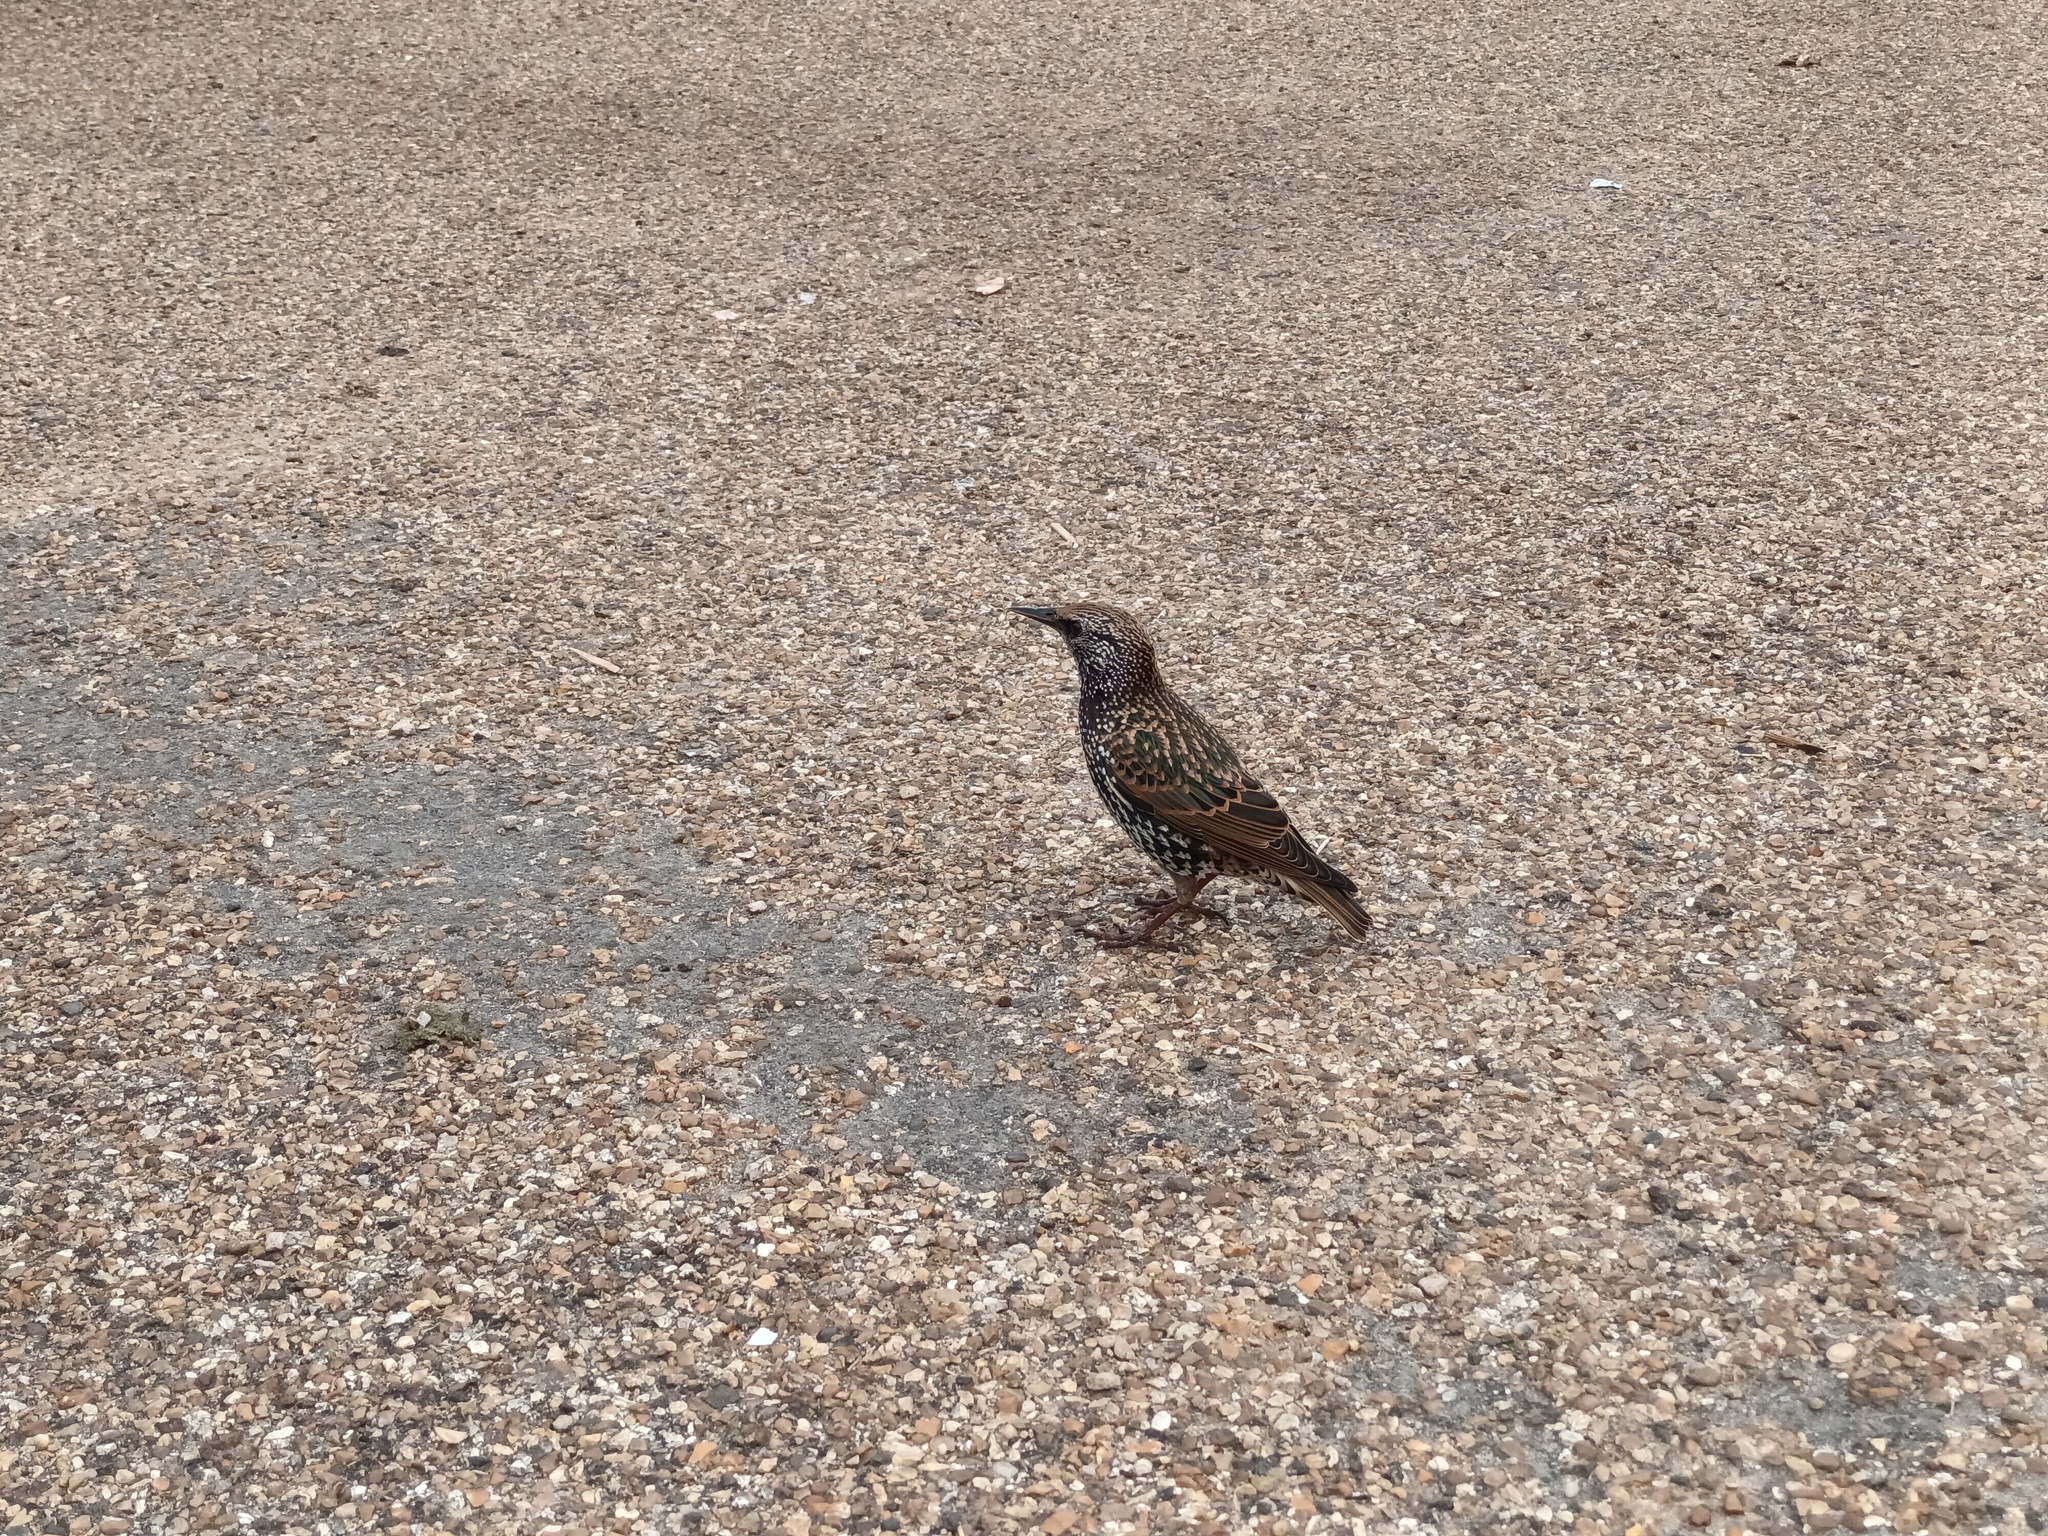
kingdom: Animalia
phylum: Chordata
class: Aves
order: Passeriformes
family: Sturnidae
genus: Sturnus
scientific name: Sturnus vulgaris
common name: Common starling
